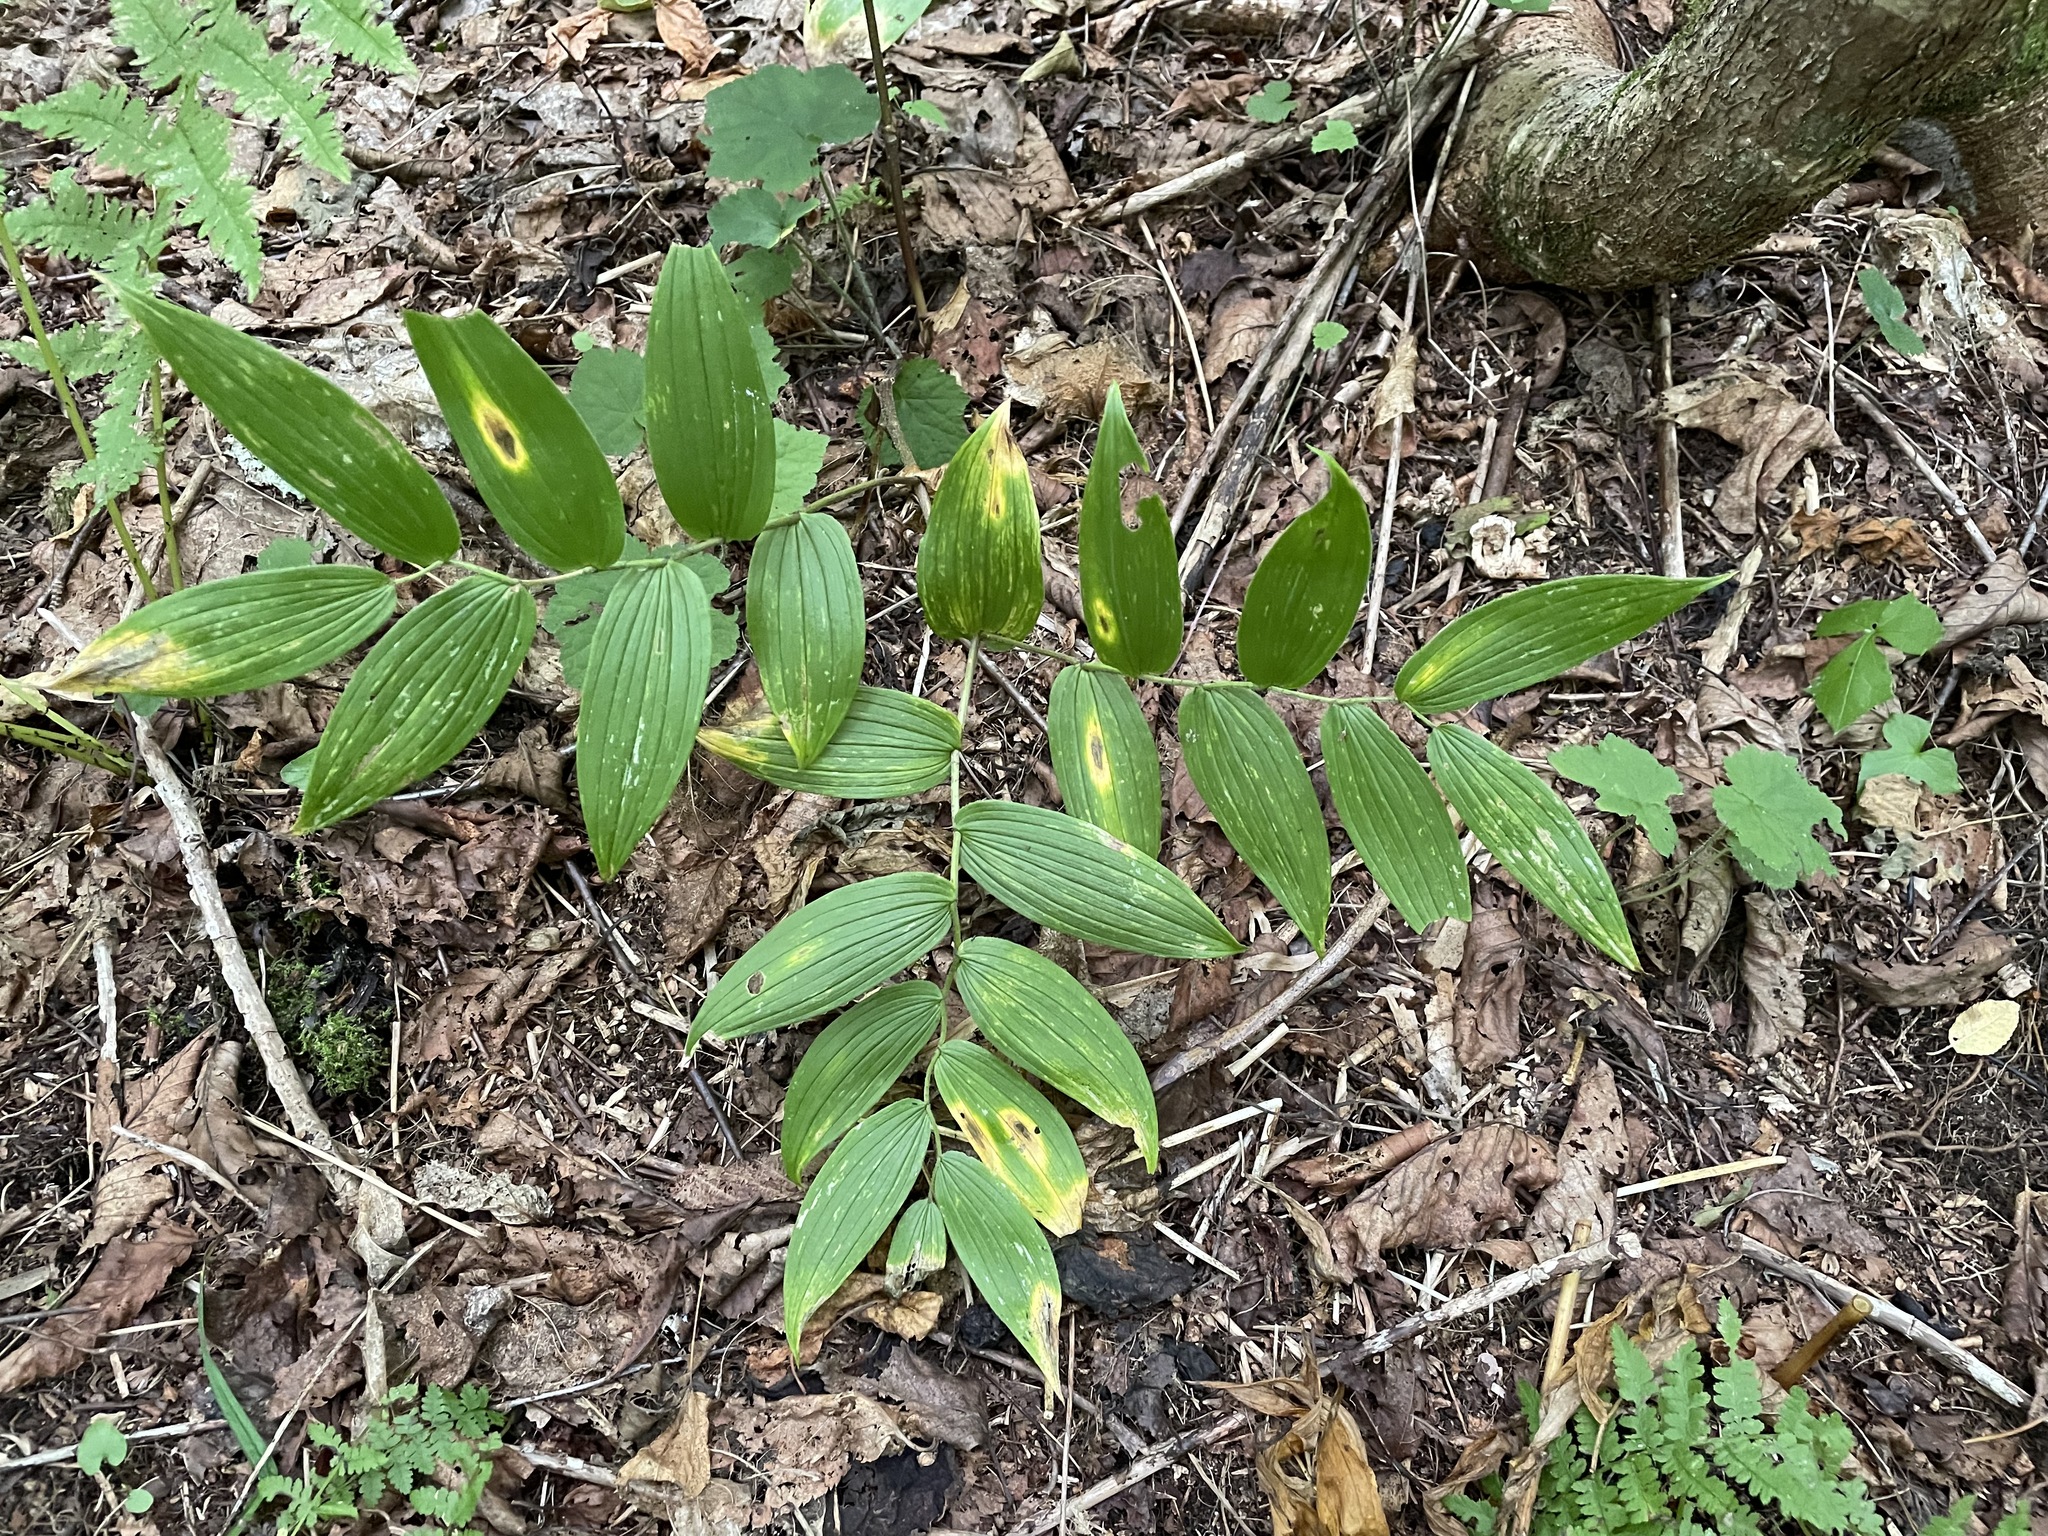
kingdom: Plantae
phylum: Tracheophyta
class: Liliopsida
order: Liliales
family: Liliaceae
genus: Streptopus
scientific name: Streptopus lanceolatus
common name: Rose mandarin
